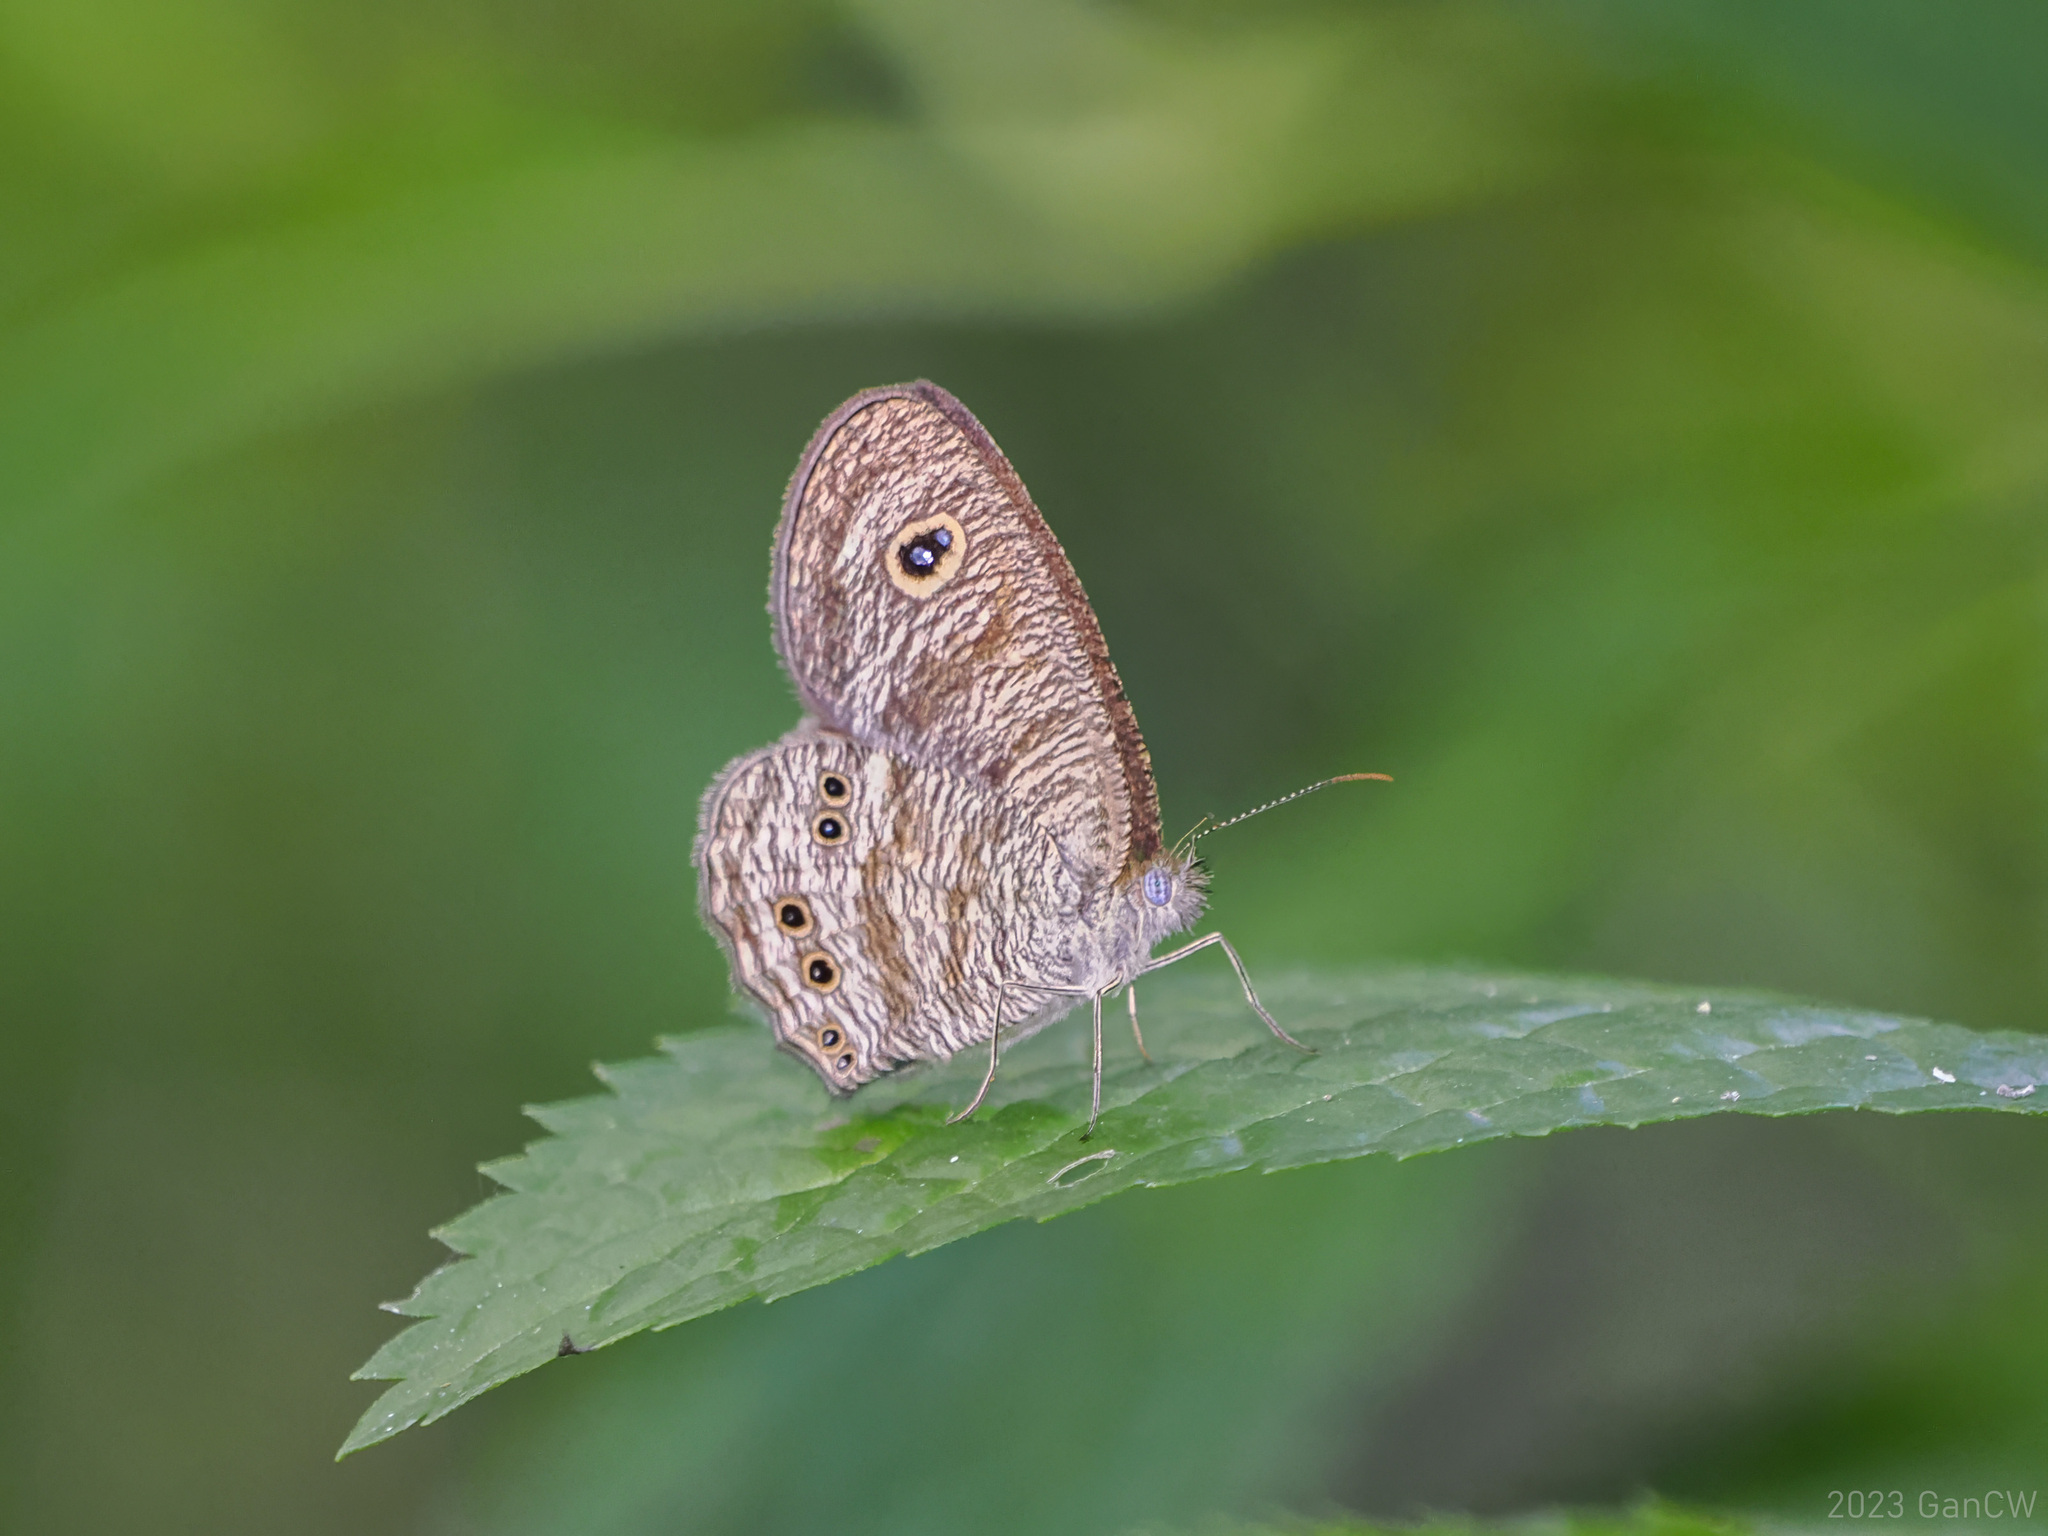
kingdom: Animalia
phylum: Arthropoda
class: Insecta
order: Lepidoptera
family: Nymphalidae
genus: Ypthima
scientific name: Ypthima nigricans
